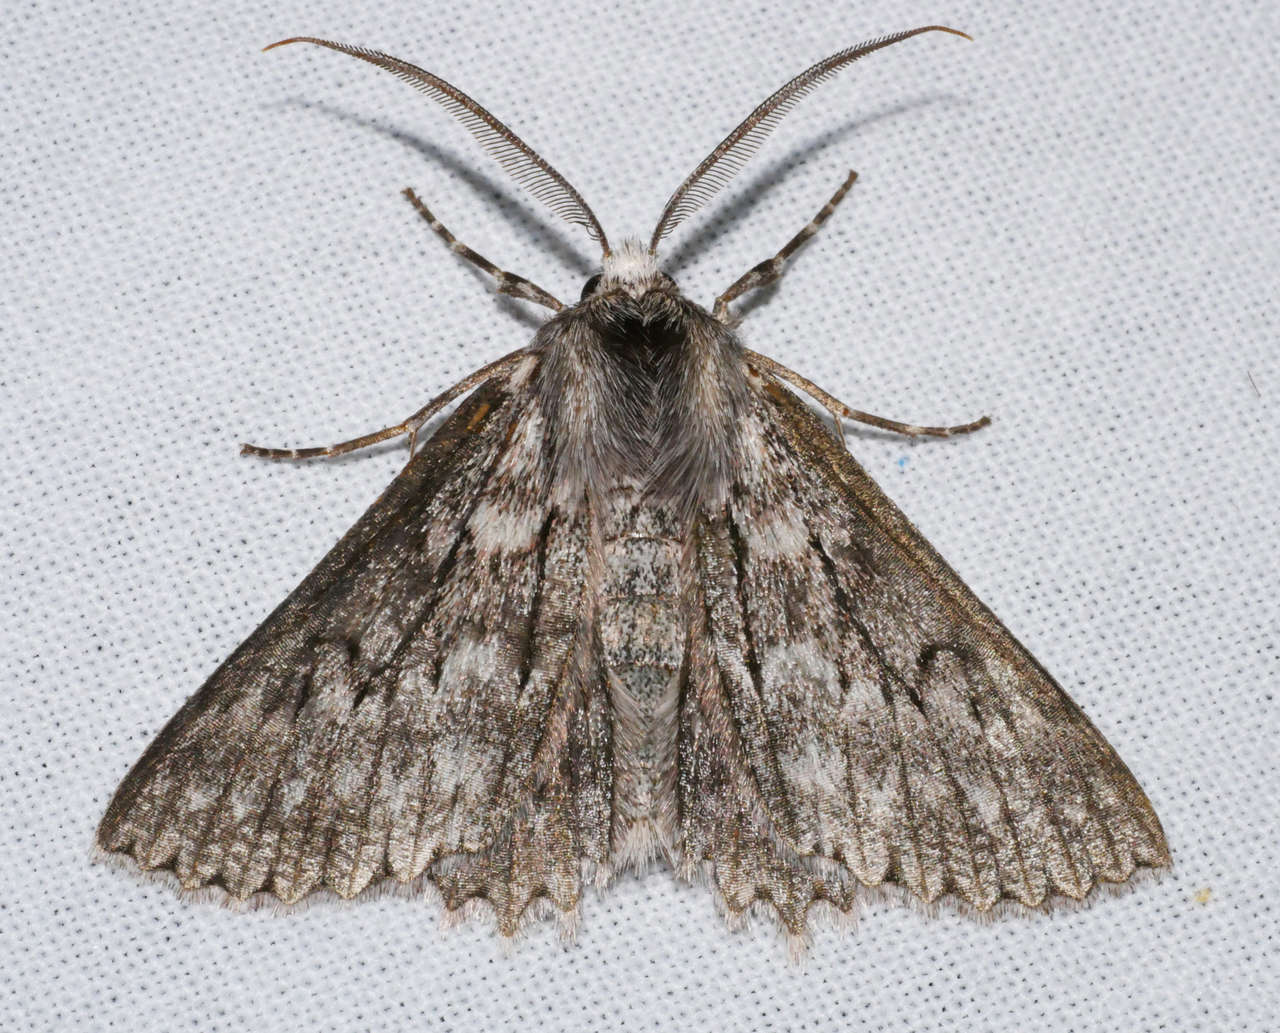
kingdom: Animalia
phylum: Arthropoda
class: Insecta
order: Lepidoptera
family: Geometridae
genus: Cyneoterpna
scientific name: Cyneoterpna alpina
